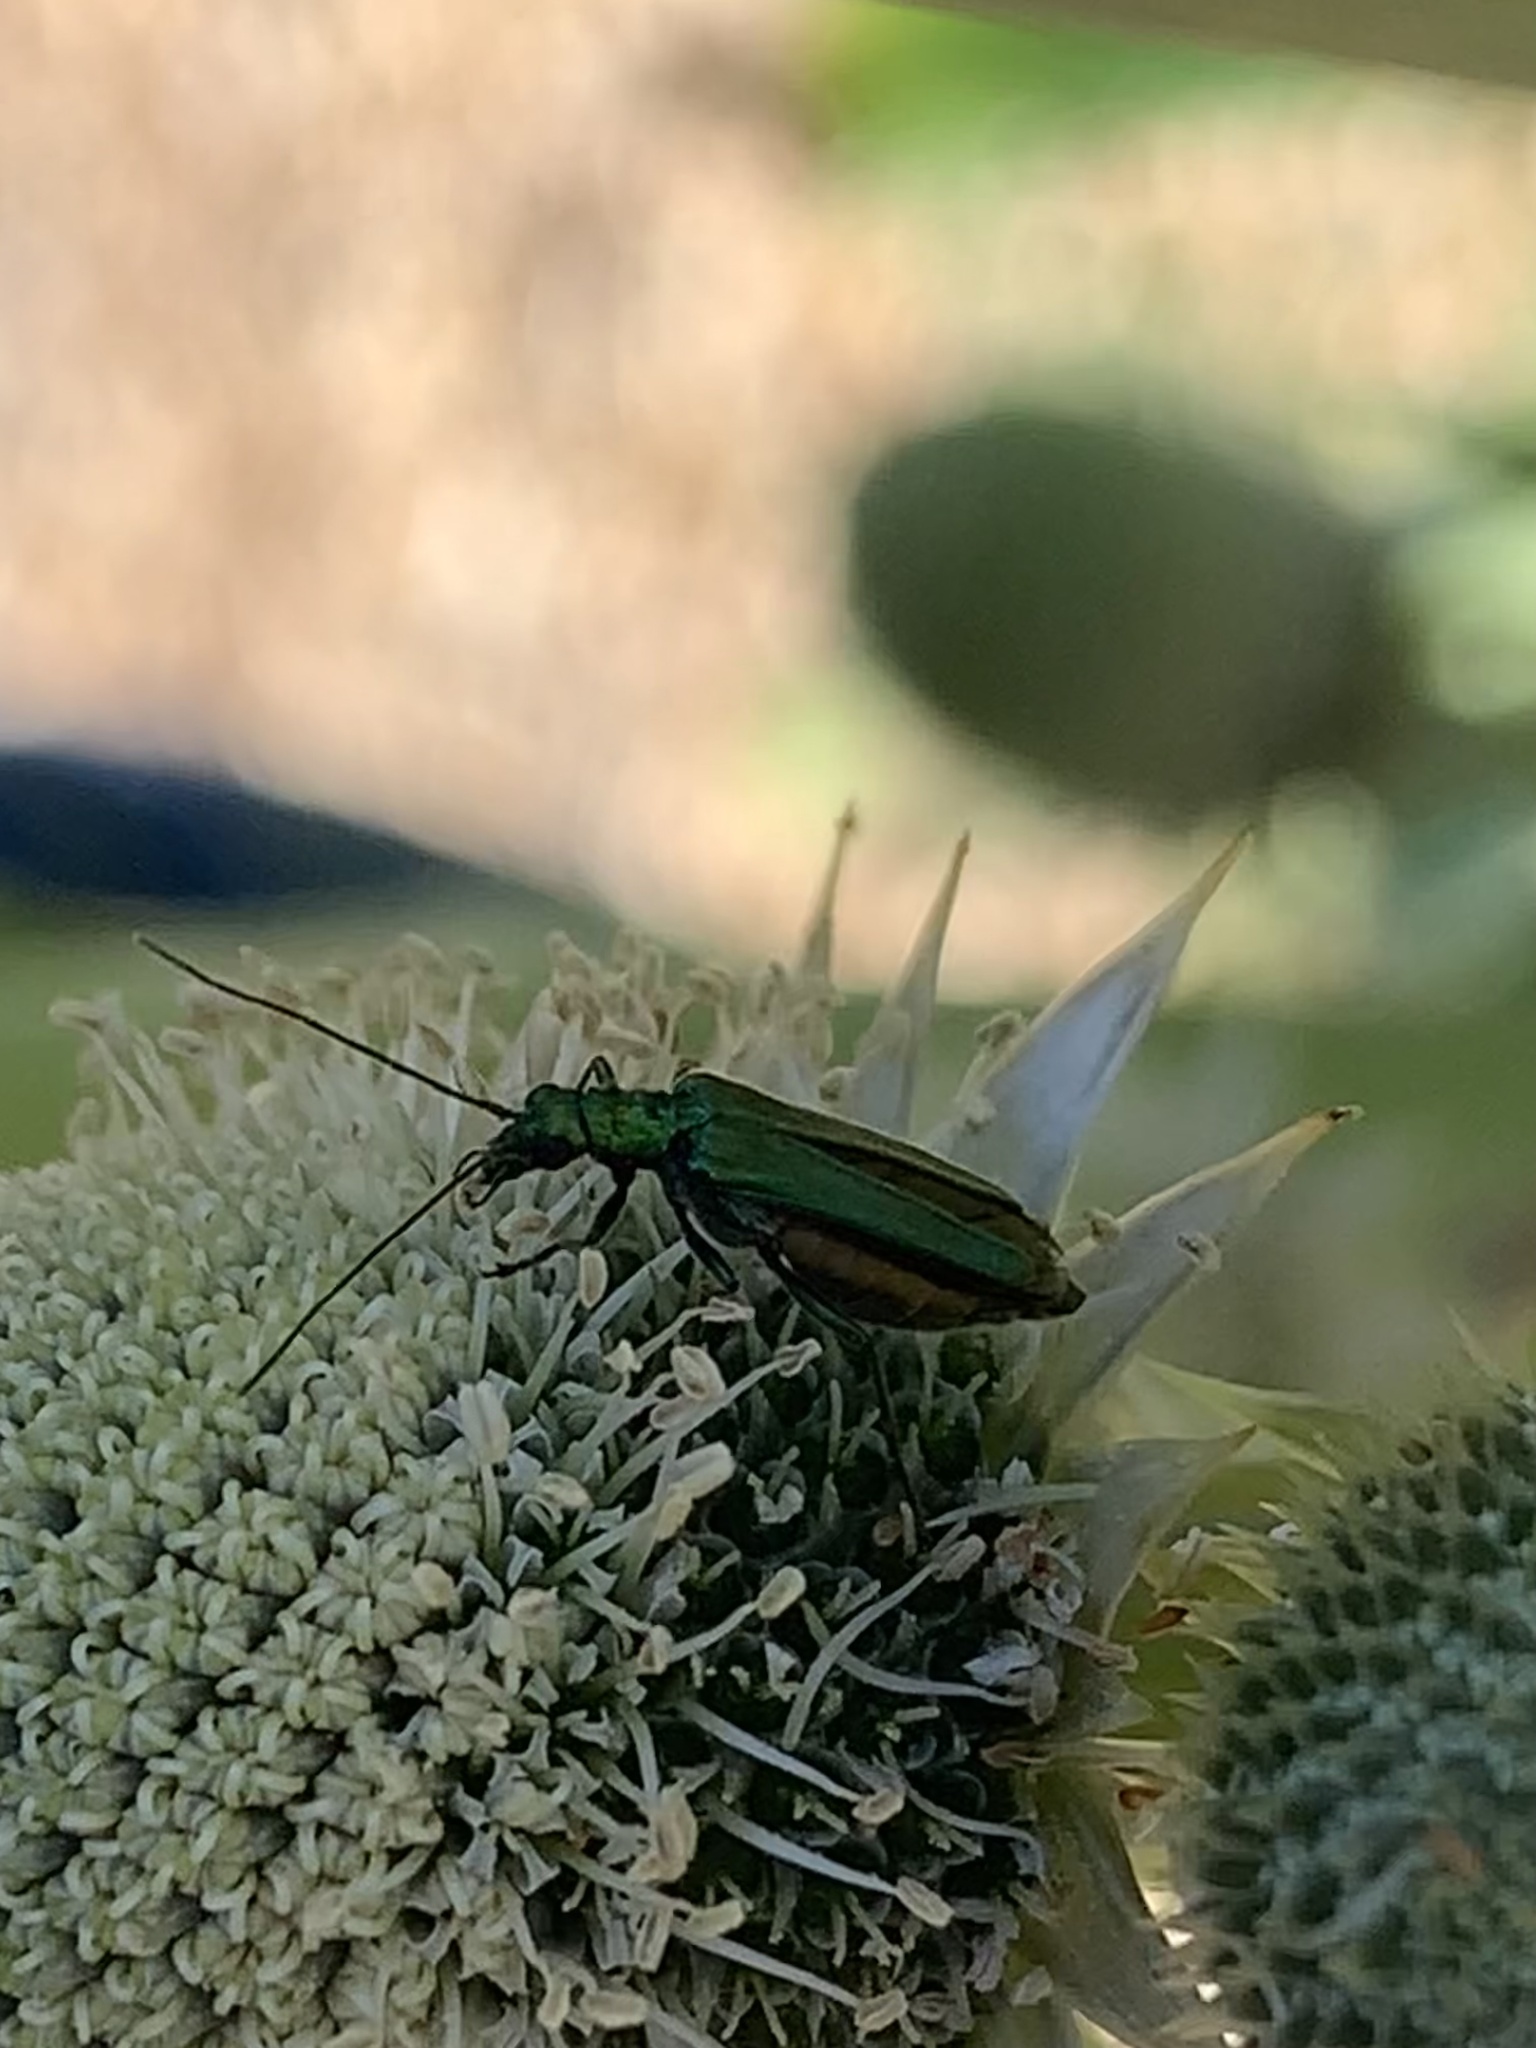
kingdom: Animalia
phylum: Arthropoda
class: Insecta
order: Coleoptera
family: Oedemeridae
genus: Oedemera
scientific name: Oedemera nobilis
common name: Swollen-thighed beetle
